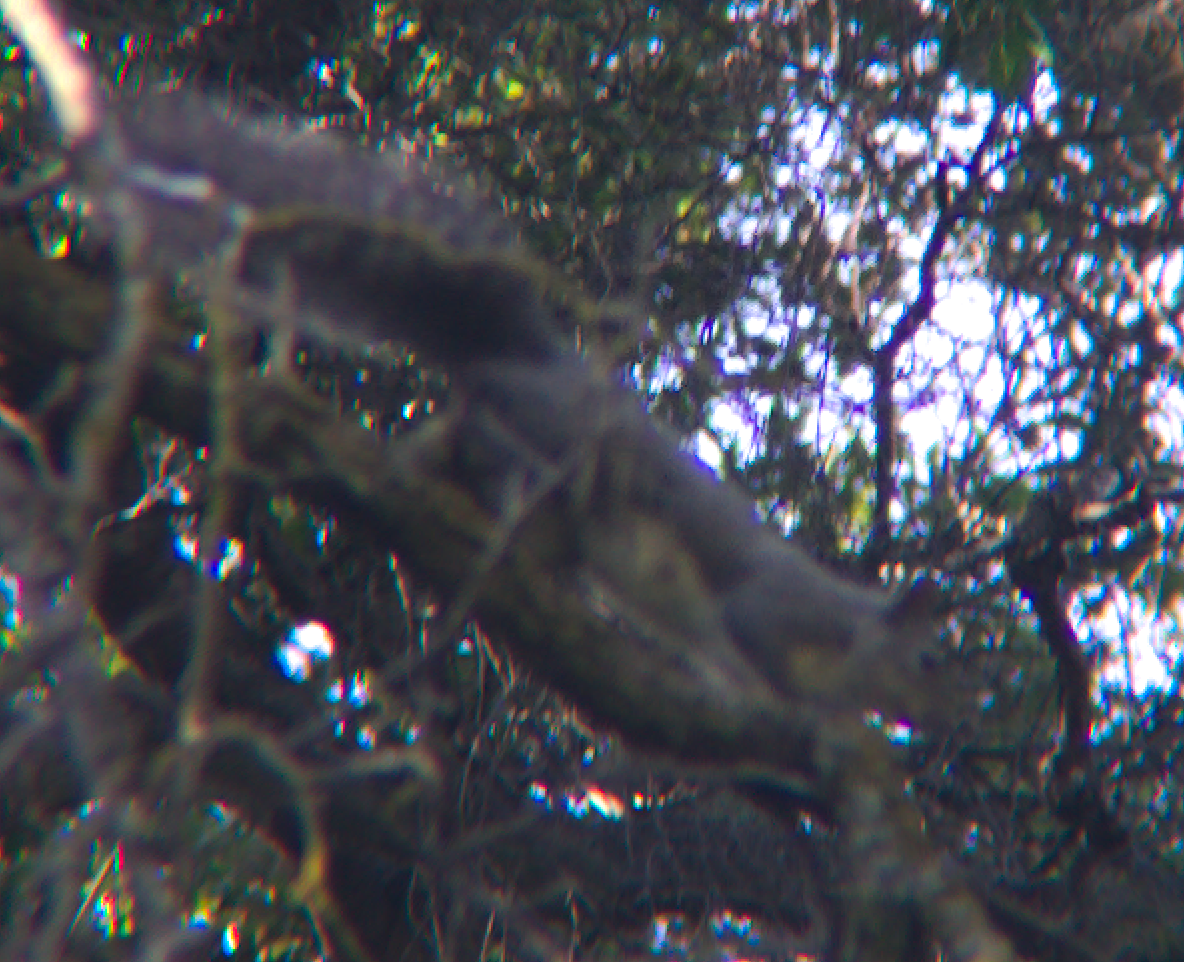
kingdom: Animalia
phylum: Chordata
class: Mammalia
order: Rodentia
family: Sciuridae
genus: Sciurus
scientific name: Sciurus griseus
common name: Western gray squirrel
